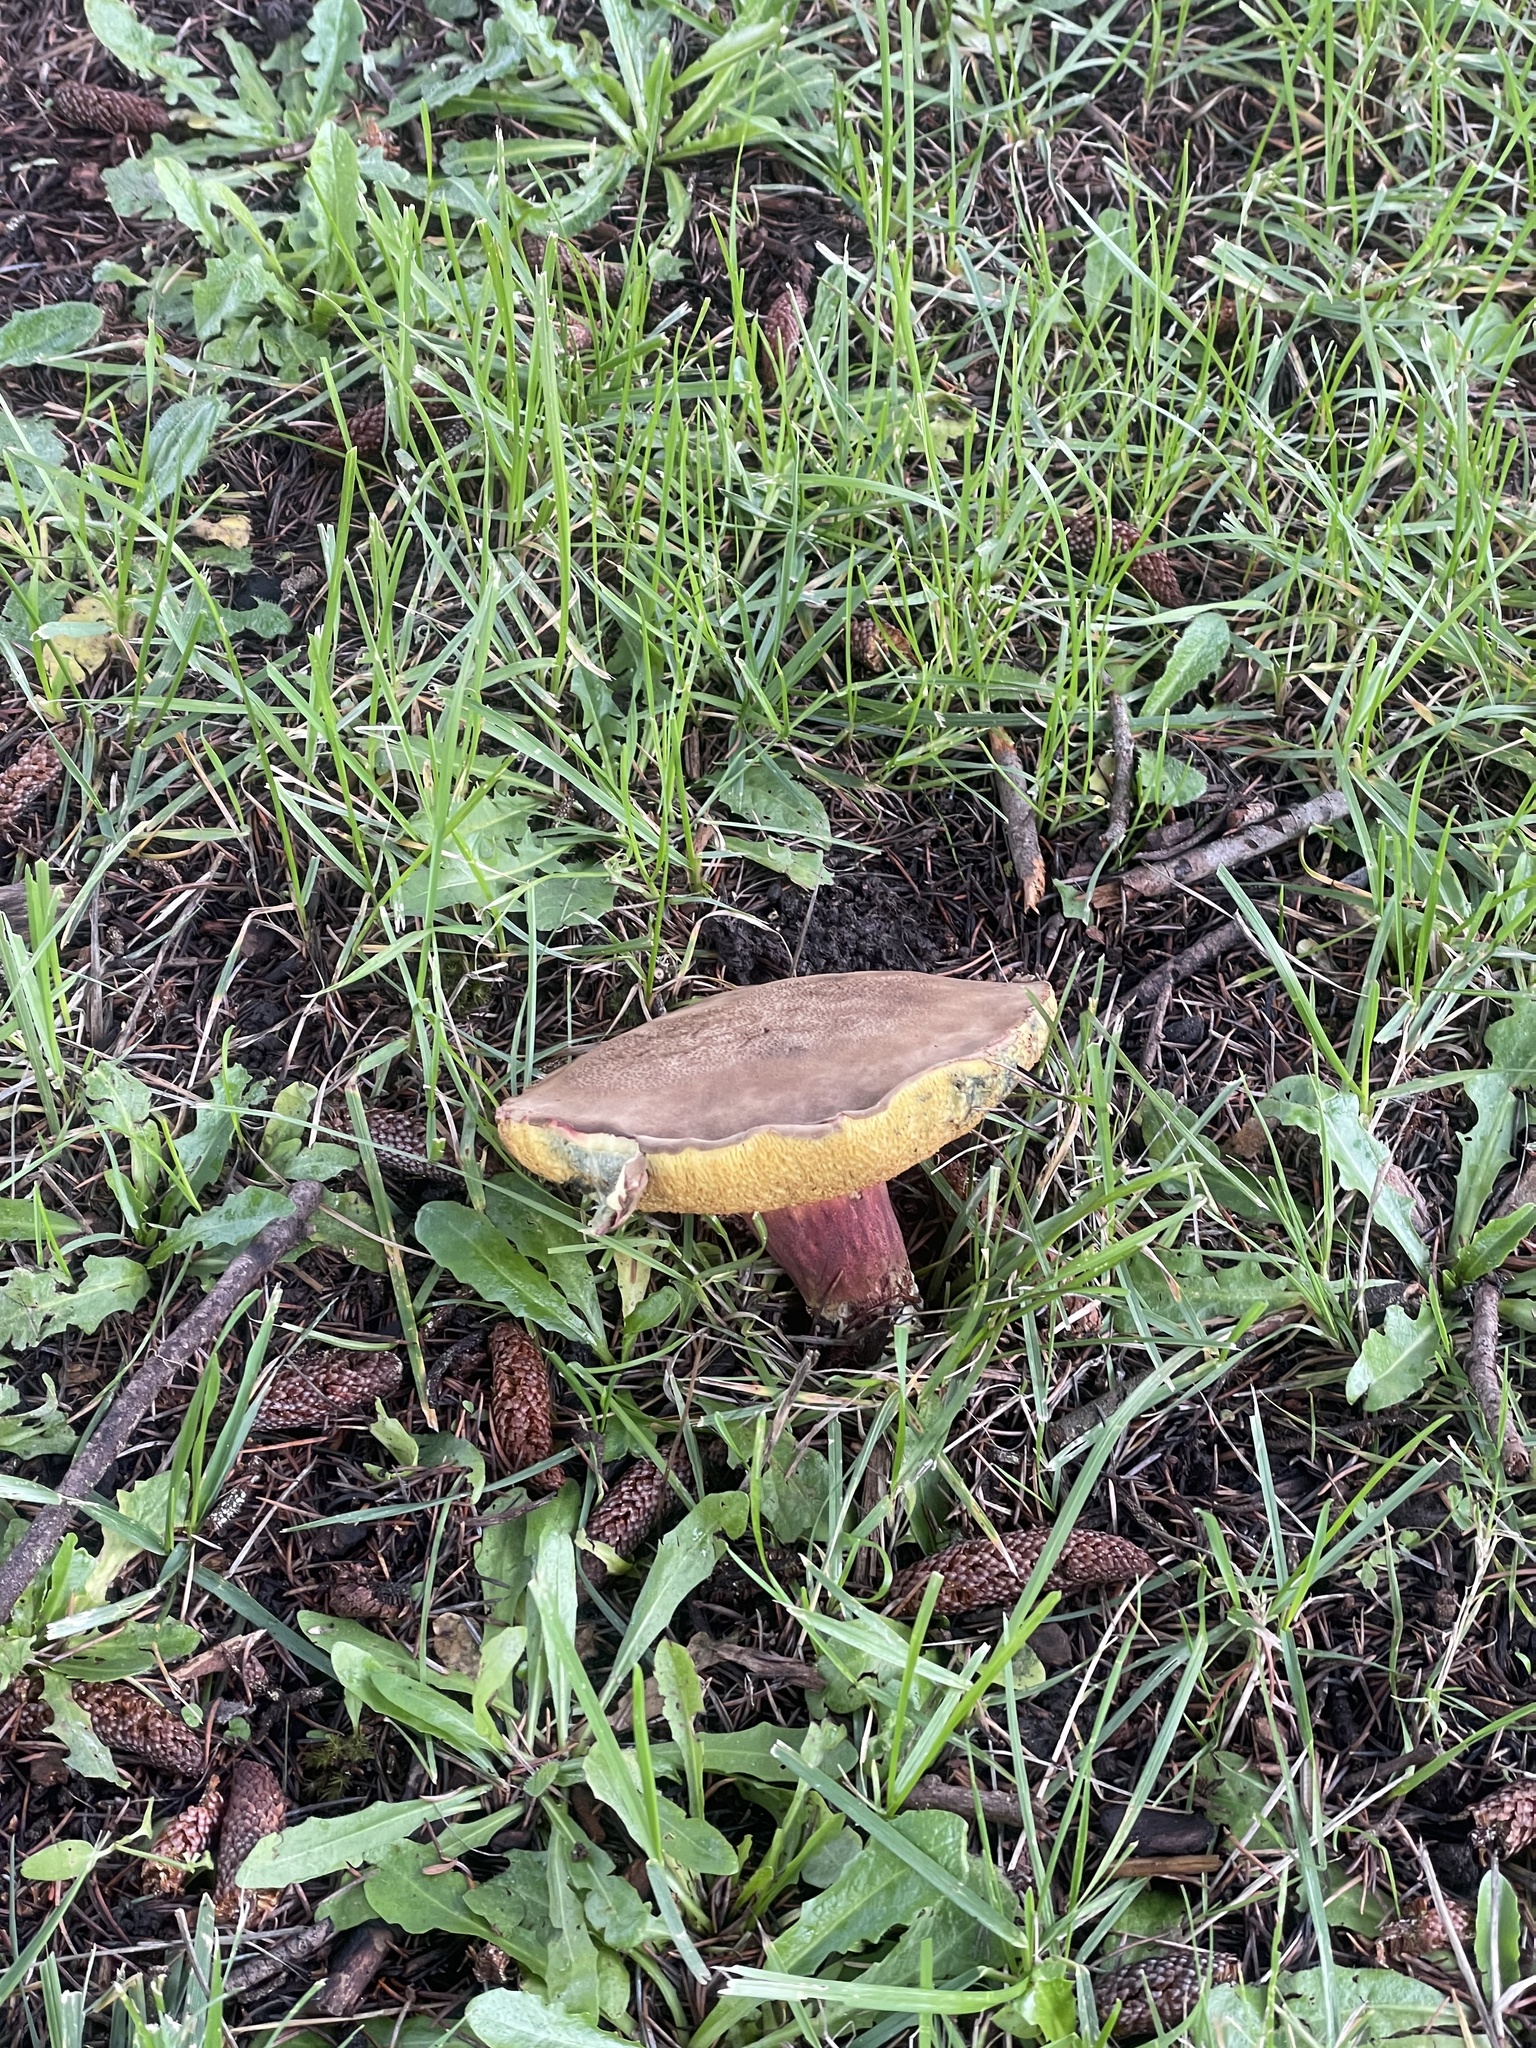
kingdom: Fungi
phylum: Basidiomycota
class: Agaricomycetes
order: Boletales
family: Boletaceae
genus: Xerocomellus
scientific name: Xerocomellus mendocinensis
